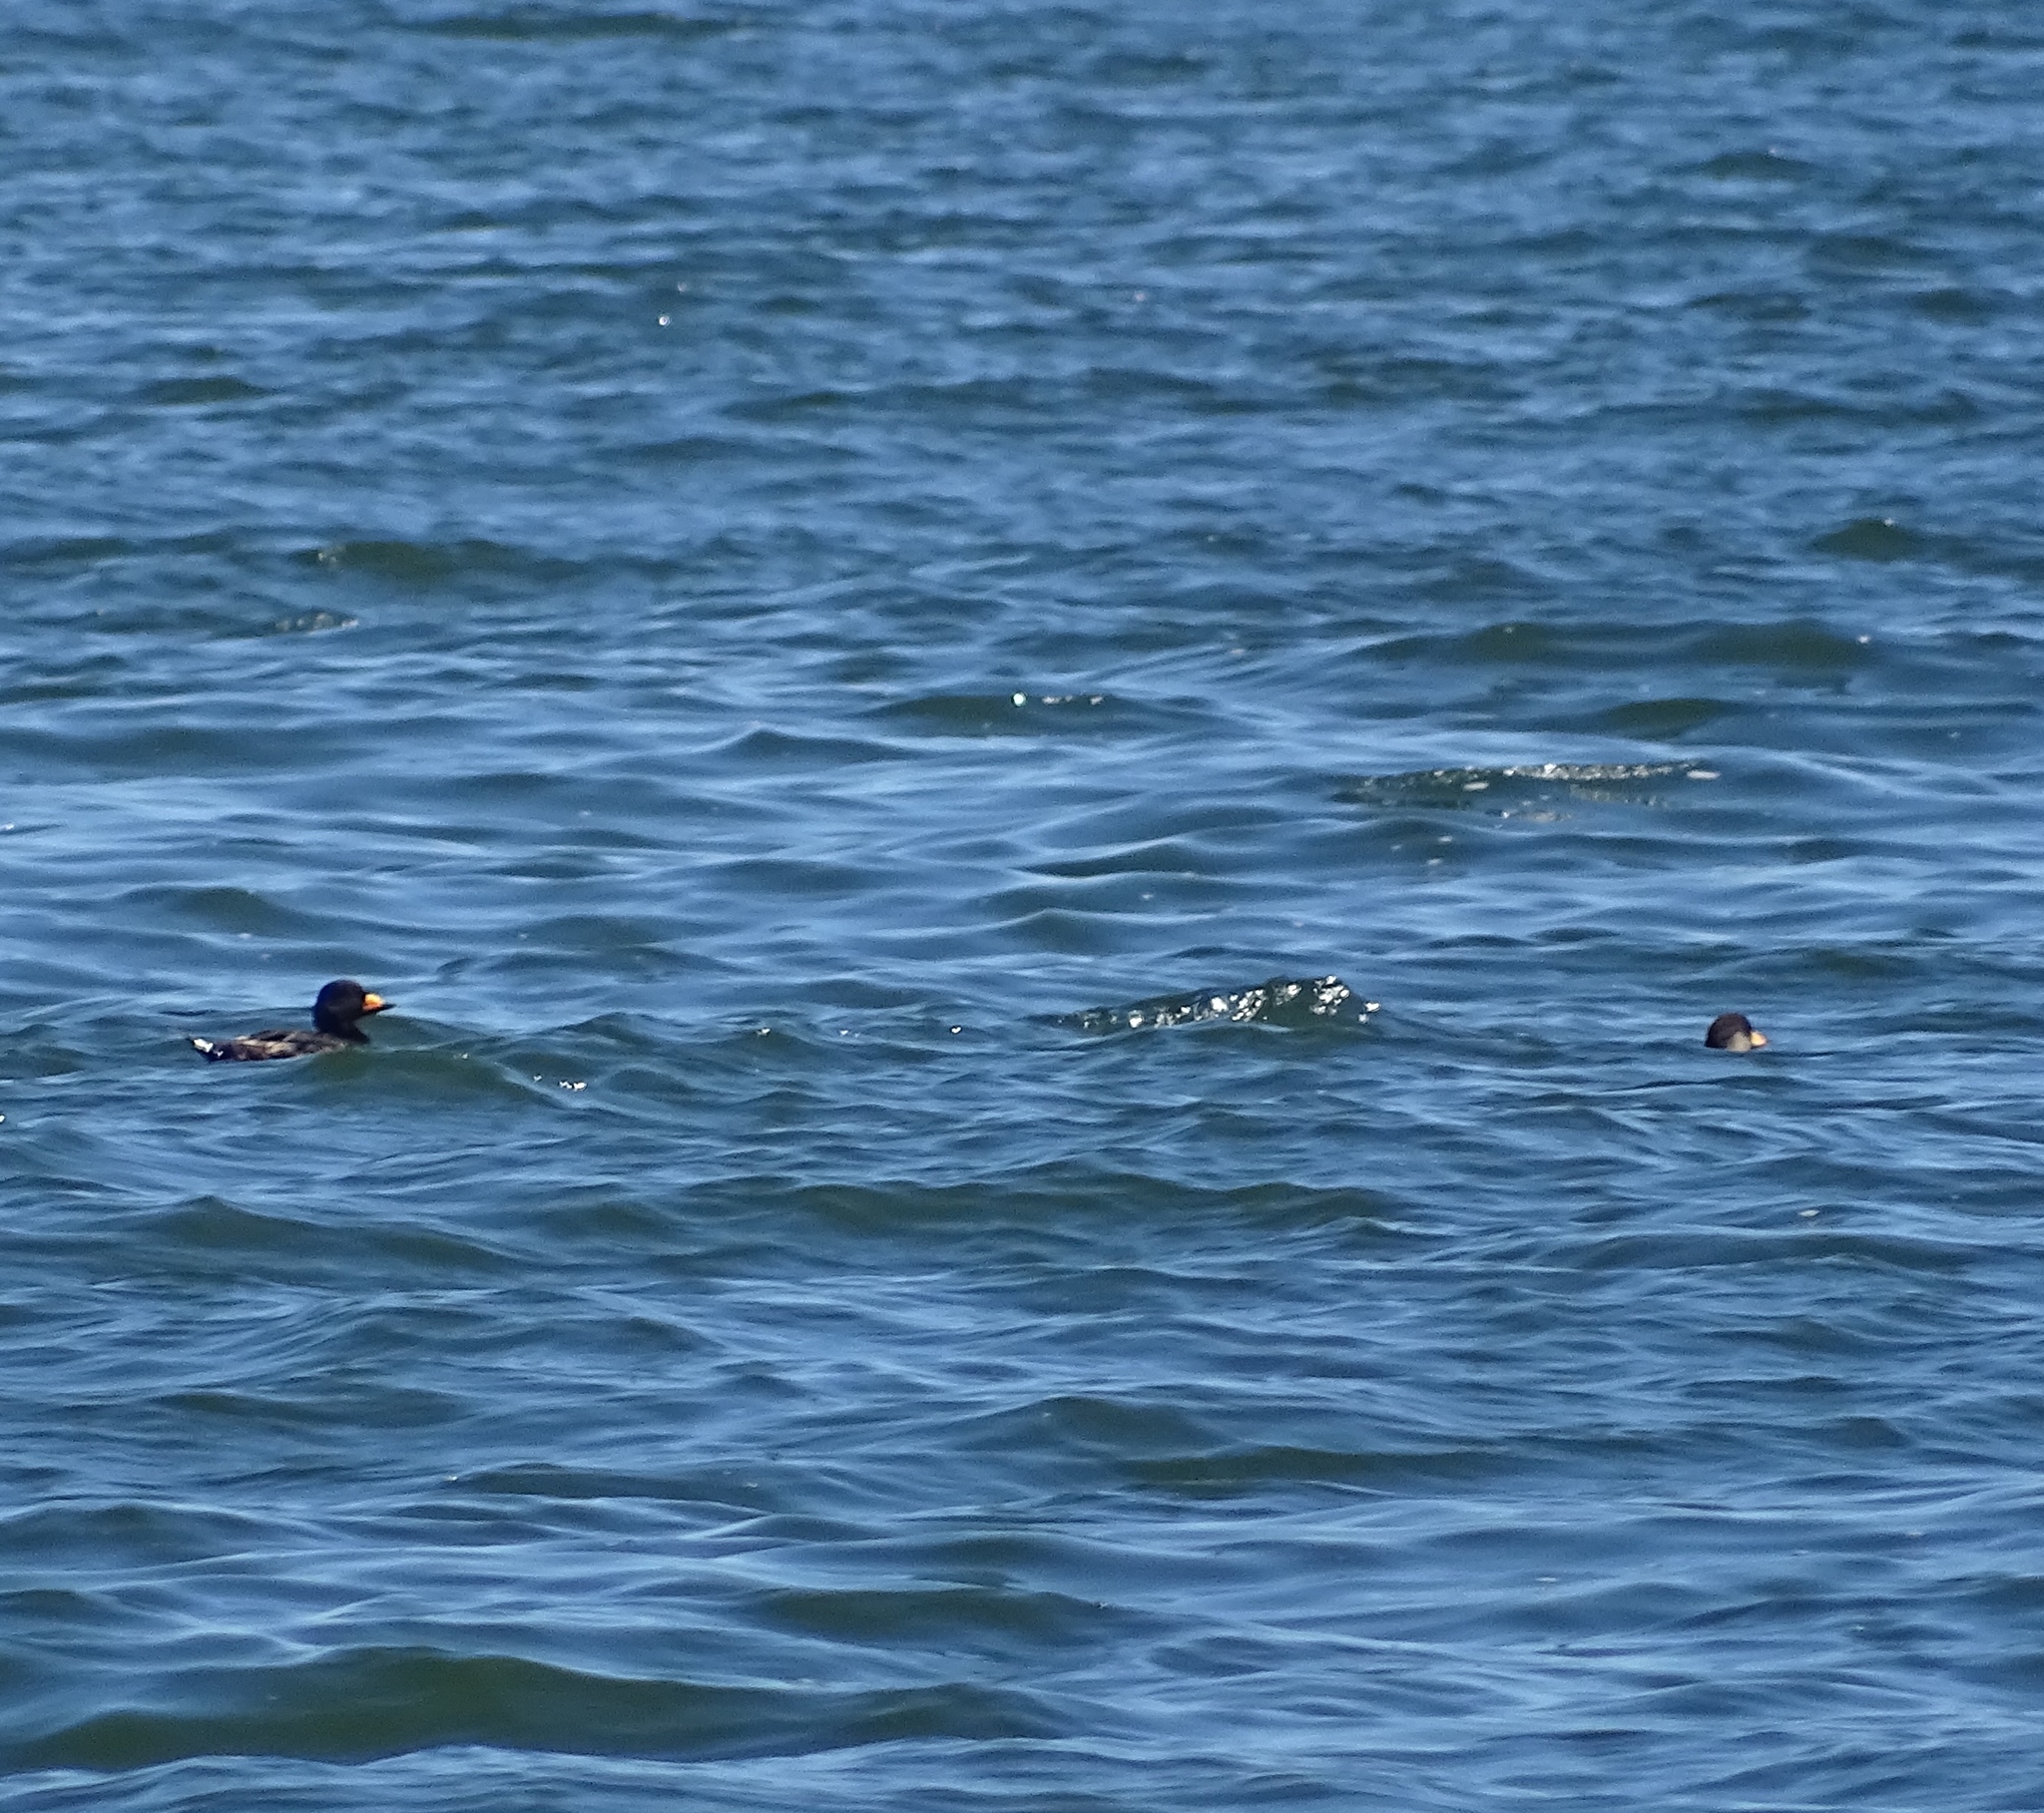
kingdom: Animalia
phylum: Chordata
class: Aves
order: Anseriformes
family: Anatidae
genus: Melanitta
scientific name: Melanitta americana
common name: Black scoter
